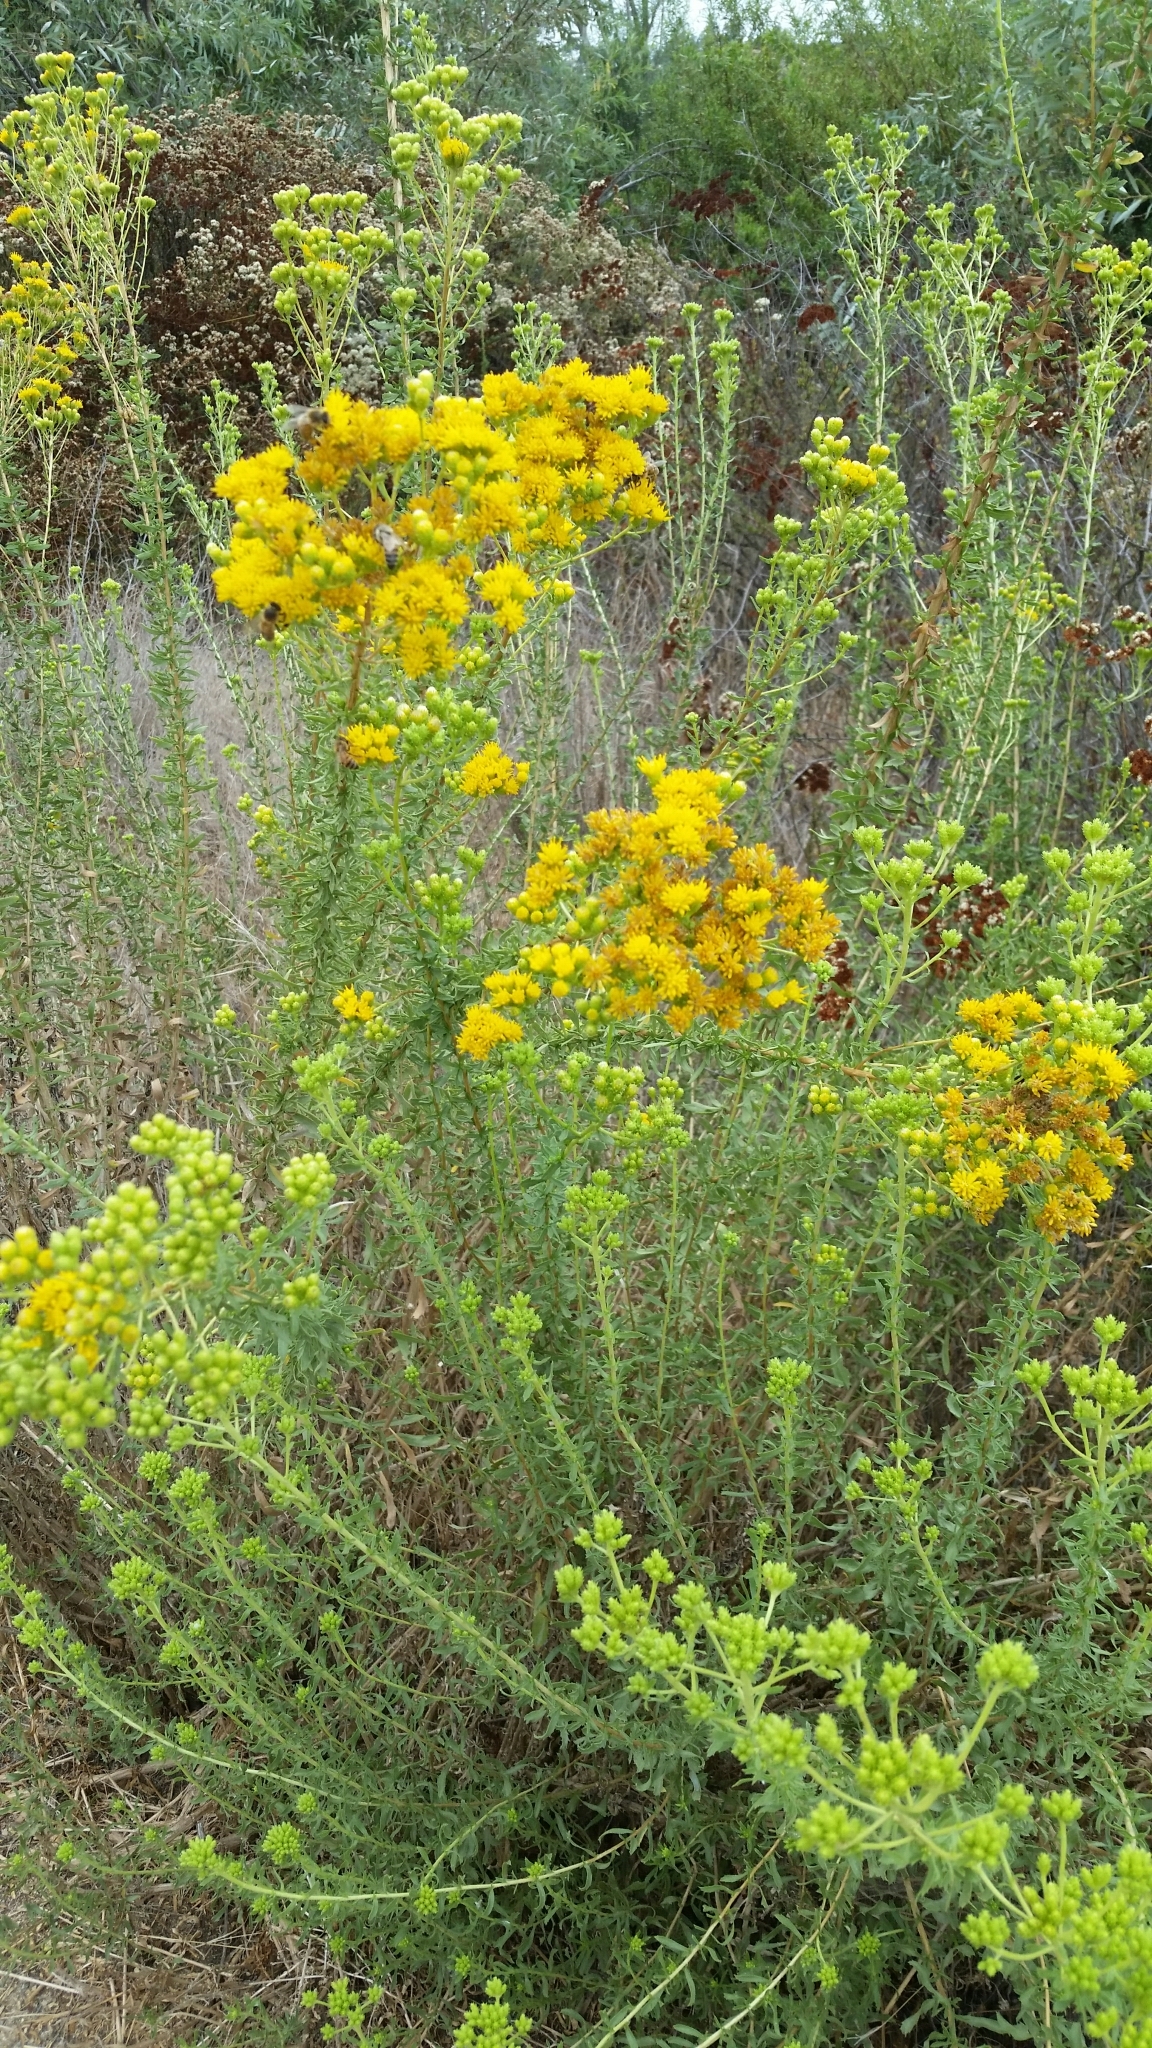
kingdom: Plantae
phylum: Tracheophyta
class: Magnoliopsida
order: Asterales
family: Asteraceae
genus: Isocoma
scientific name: Isocoma menziesii
